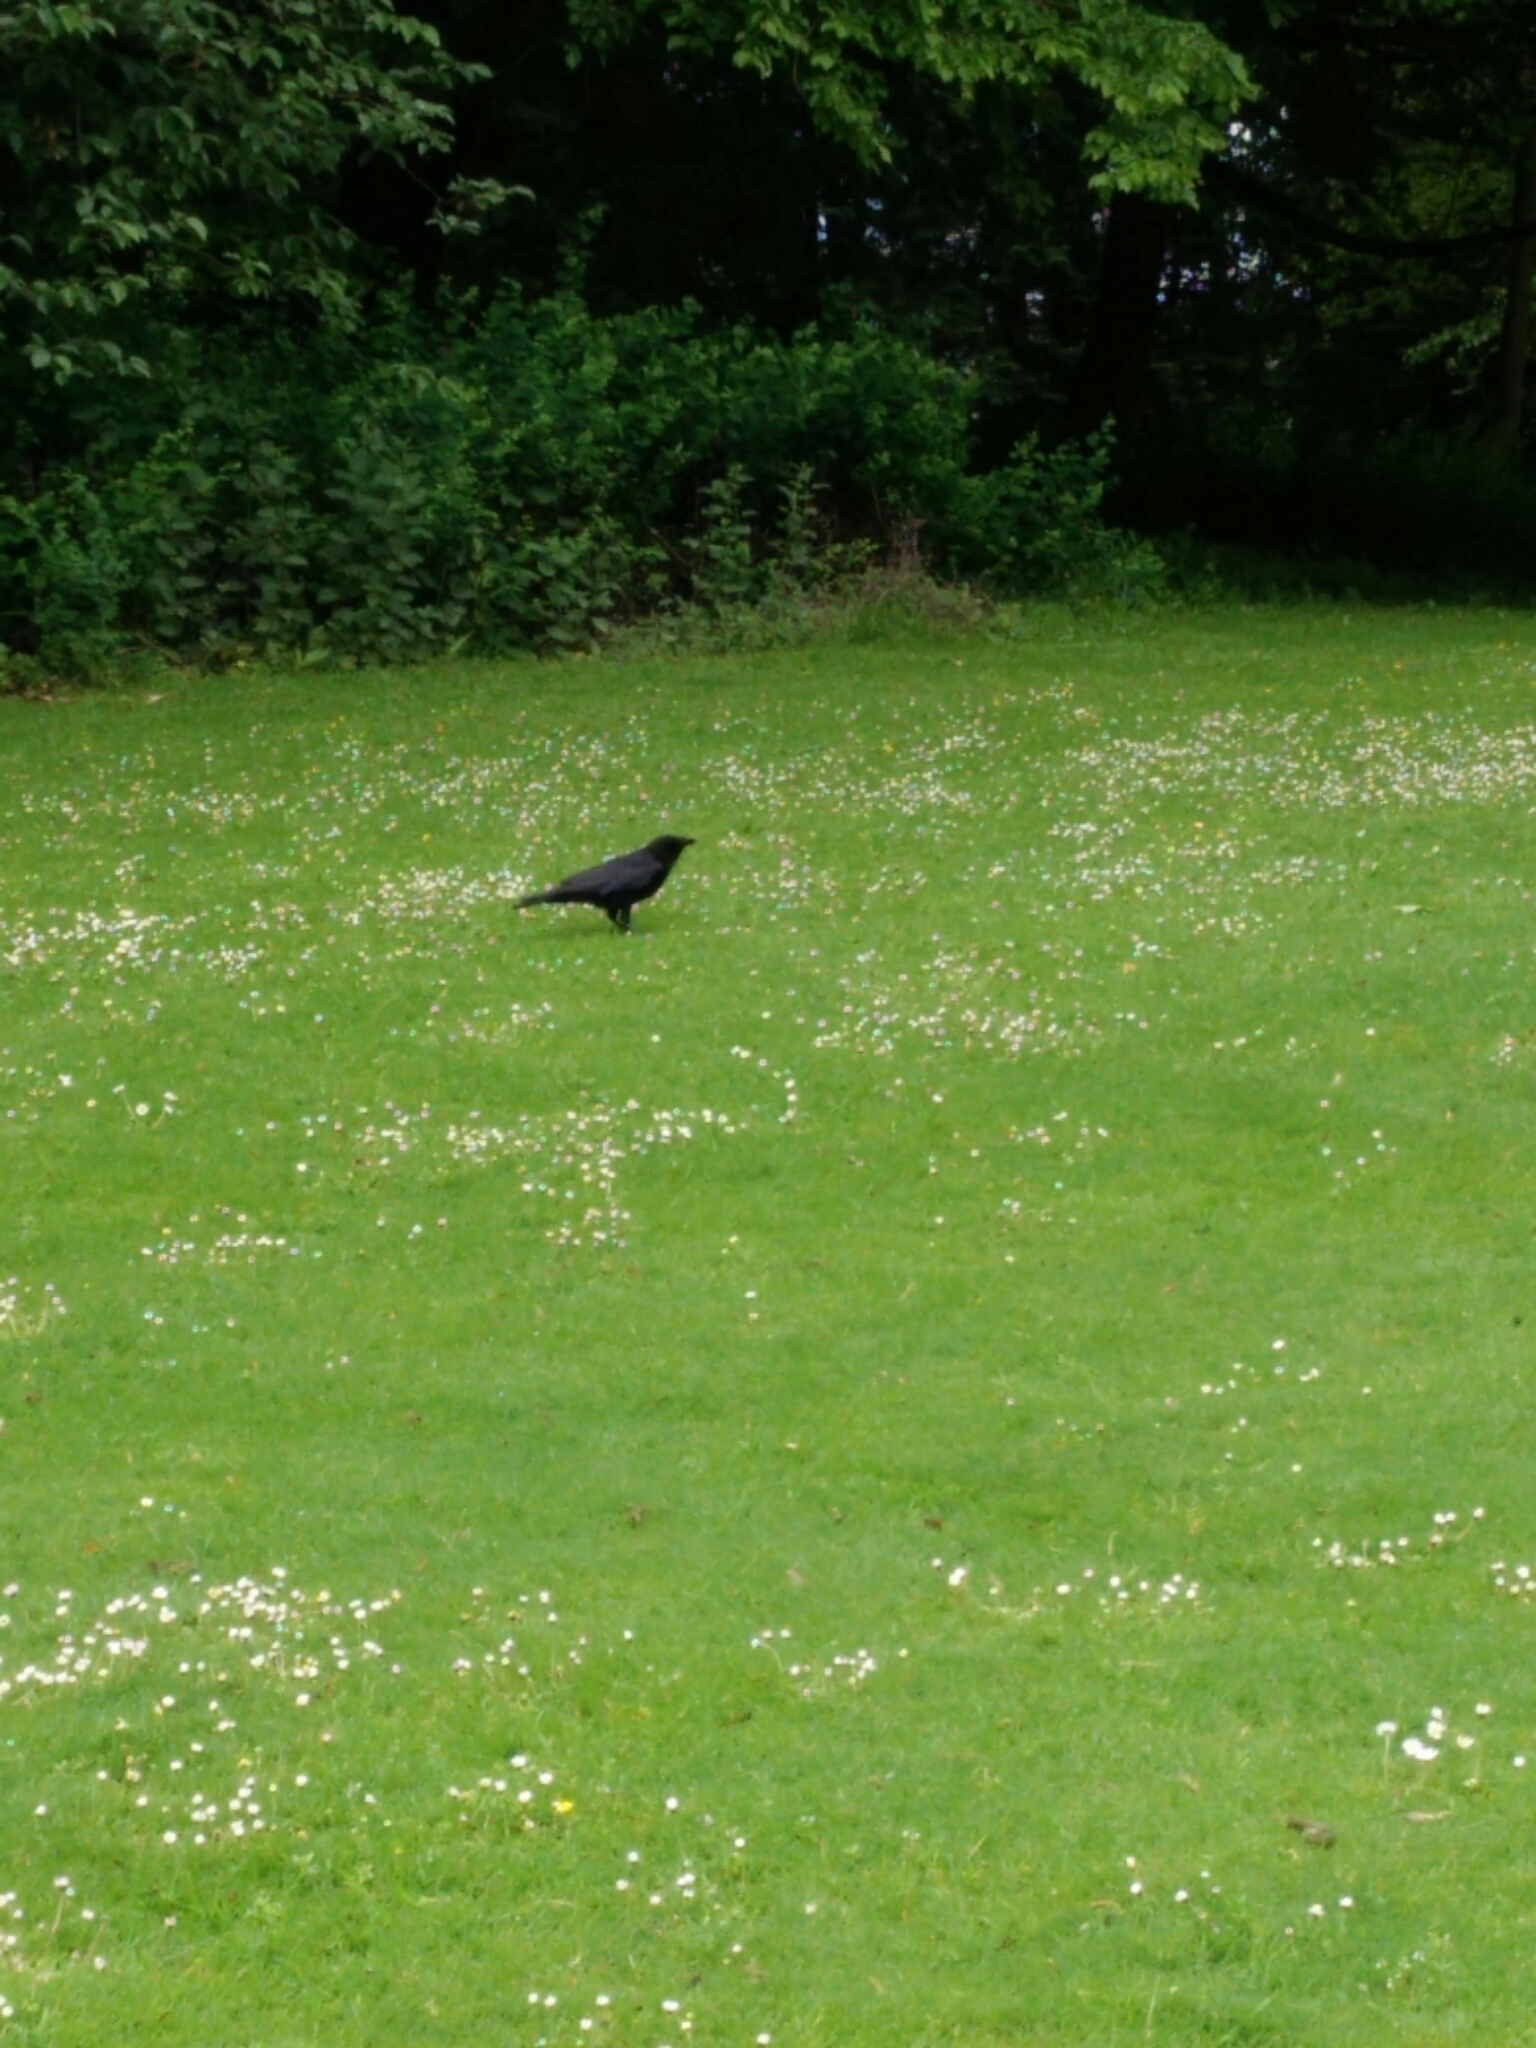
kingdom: Animalia
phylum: Chordata
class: Aves
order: Passeriformes
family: Corvidae
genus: Corvus
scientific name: Corvus corone
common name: Carrion crow
